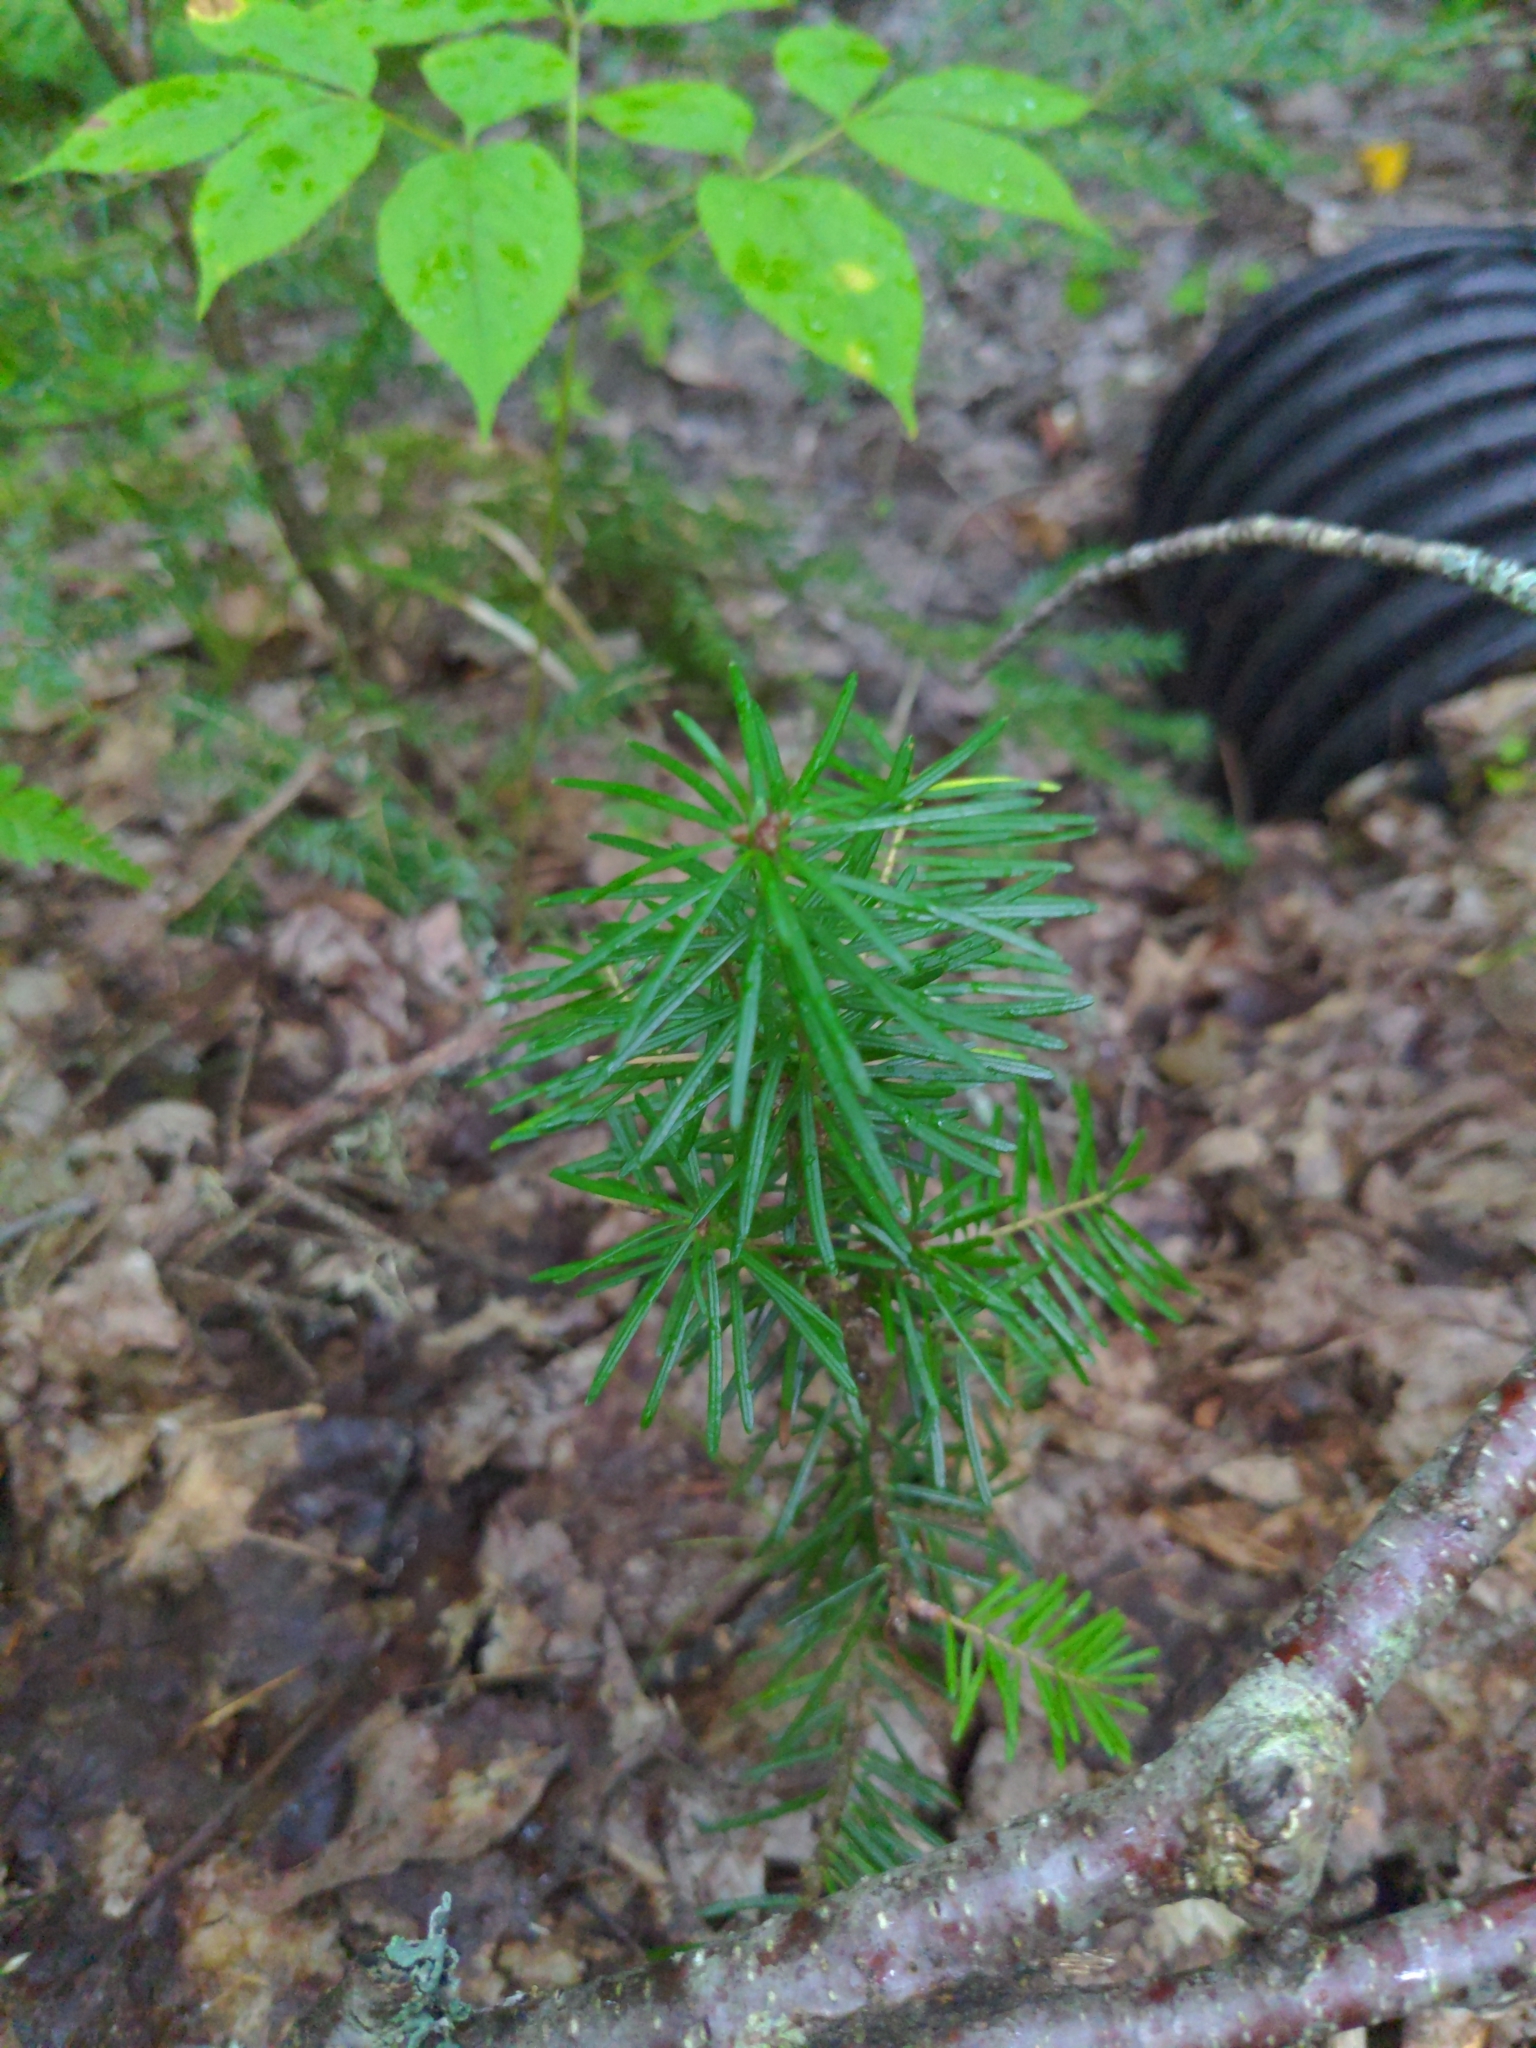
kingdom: Plantae
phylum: Tracheophyta
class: Pinopsida
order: Pinales
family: Pinaceae
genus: Abies
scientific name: Abies balsamea
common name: Balsam fir
